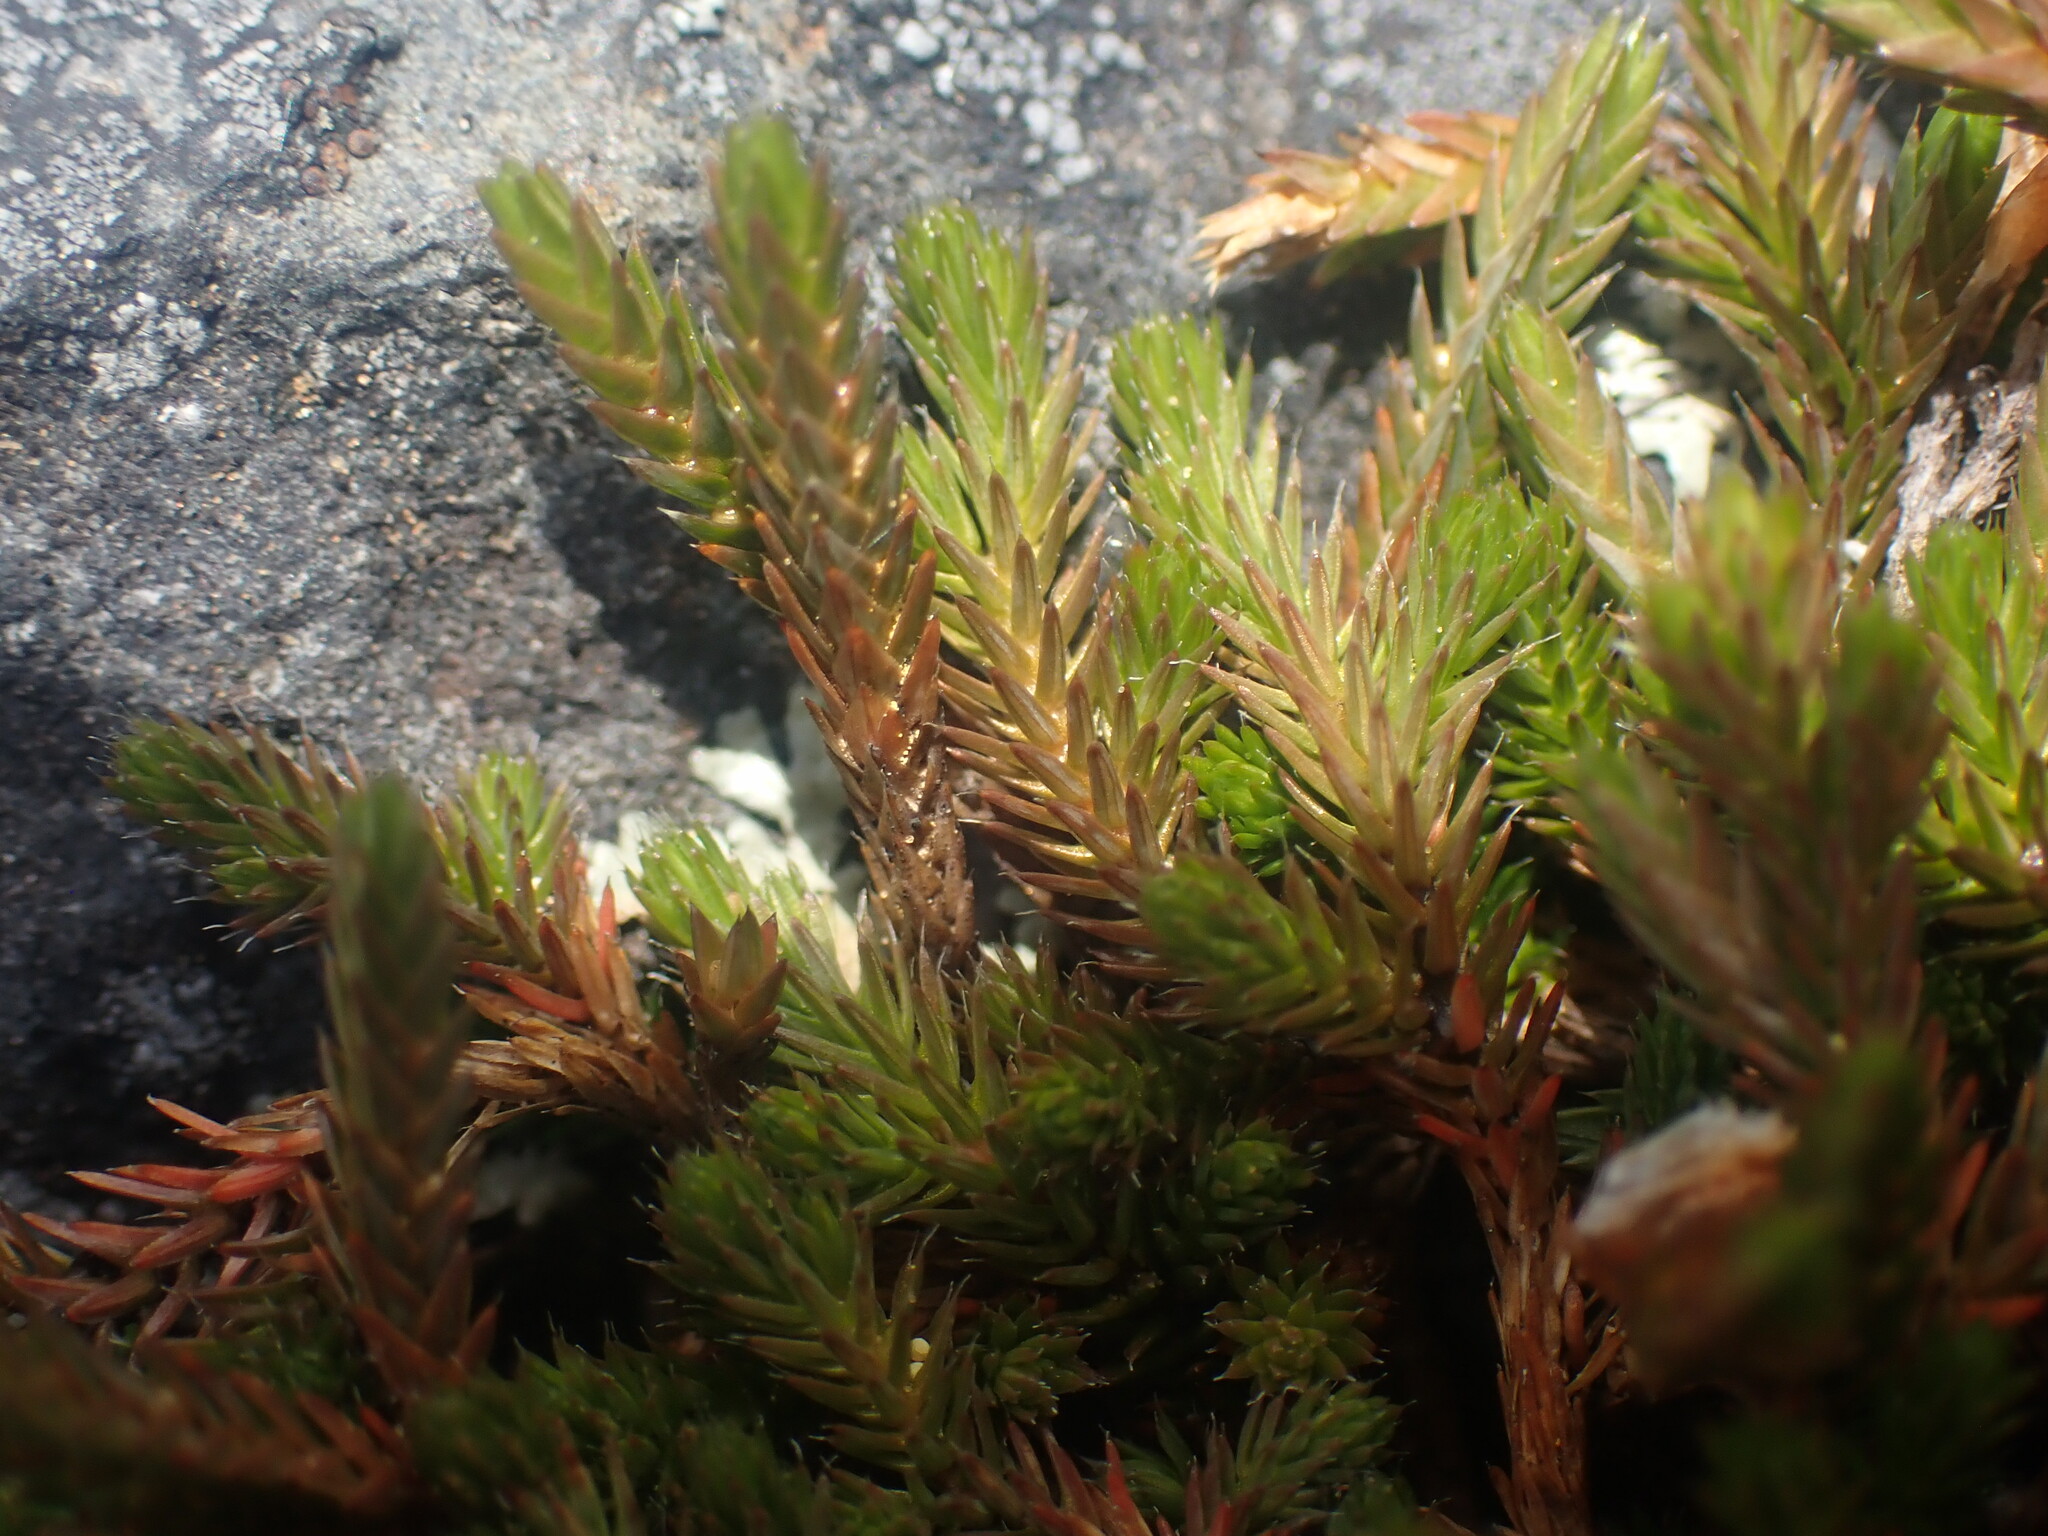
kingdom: Plantae
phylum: Tracheophyta
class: Lycopodiopsida
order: Selaginellales
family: Selaginellaceae
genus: Selaginella
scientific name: Selaginella wallacei
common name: Wallace's selaginella
